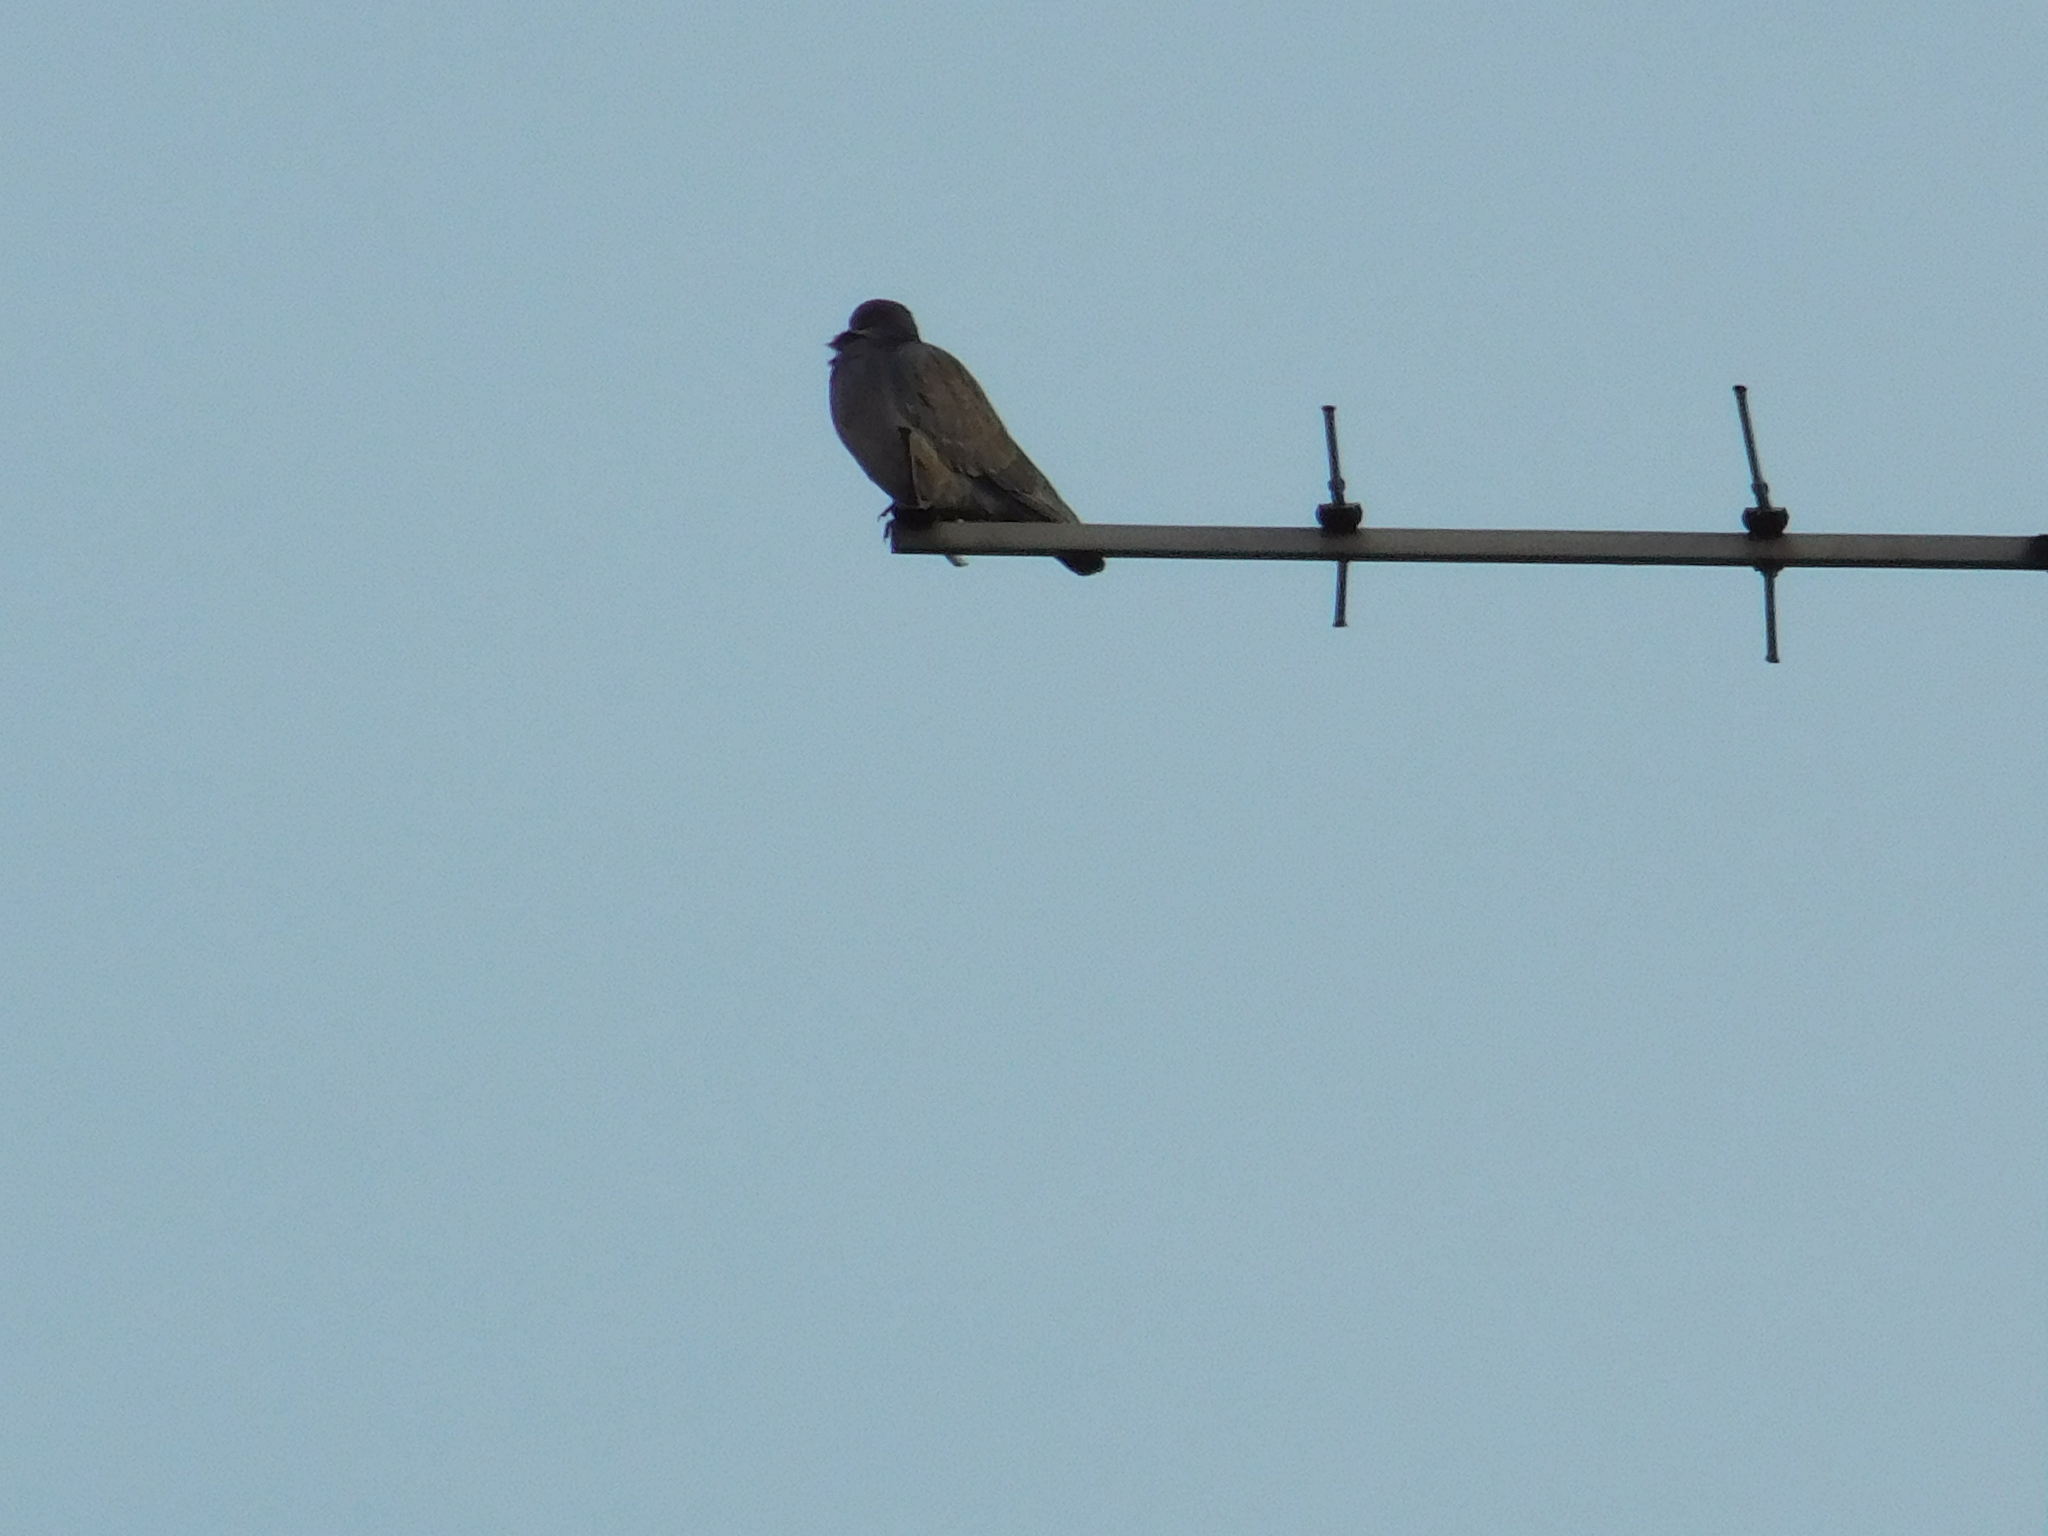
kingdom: Animalia
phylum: Chordata
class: Aves
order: Columbiformes
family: Columbidae
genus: Patagioenas
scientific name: Patagioenas picazuro
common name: Picazuro pigeon
